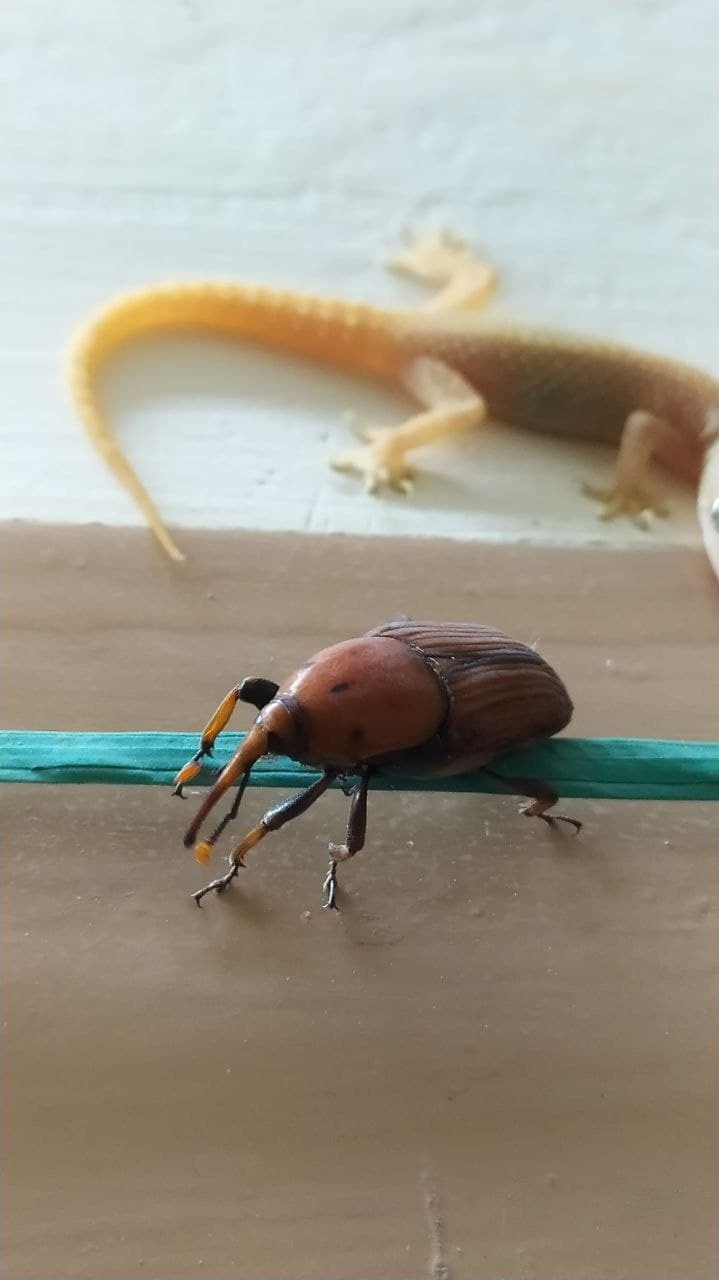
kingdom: Animalia
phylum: Arthropoda
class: Insecta
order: Coleoptera
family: Dryophthoridae
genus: Rhynchophorus
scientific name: Rhynchophorus ferrugineus
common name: Red palm weevil
